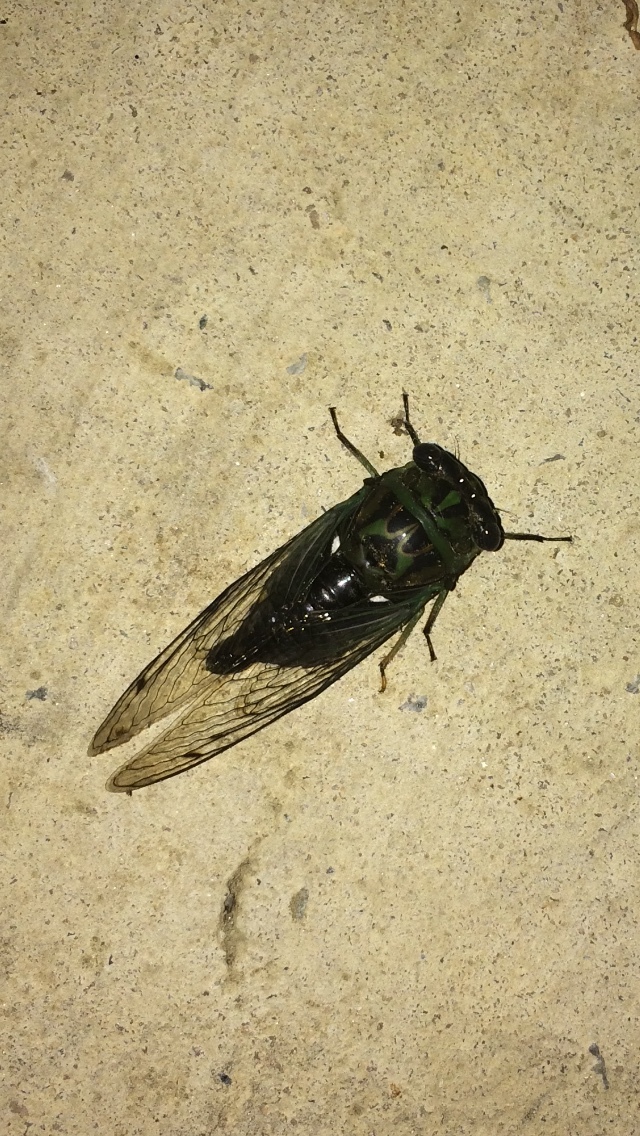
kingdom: Animalia
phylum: Arthropoda
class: Insecta
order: Hemiptera
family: Cicadidae
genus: Neotibicen
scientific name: Neotibicen linnei
